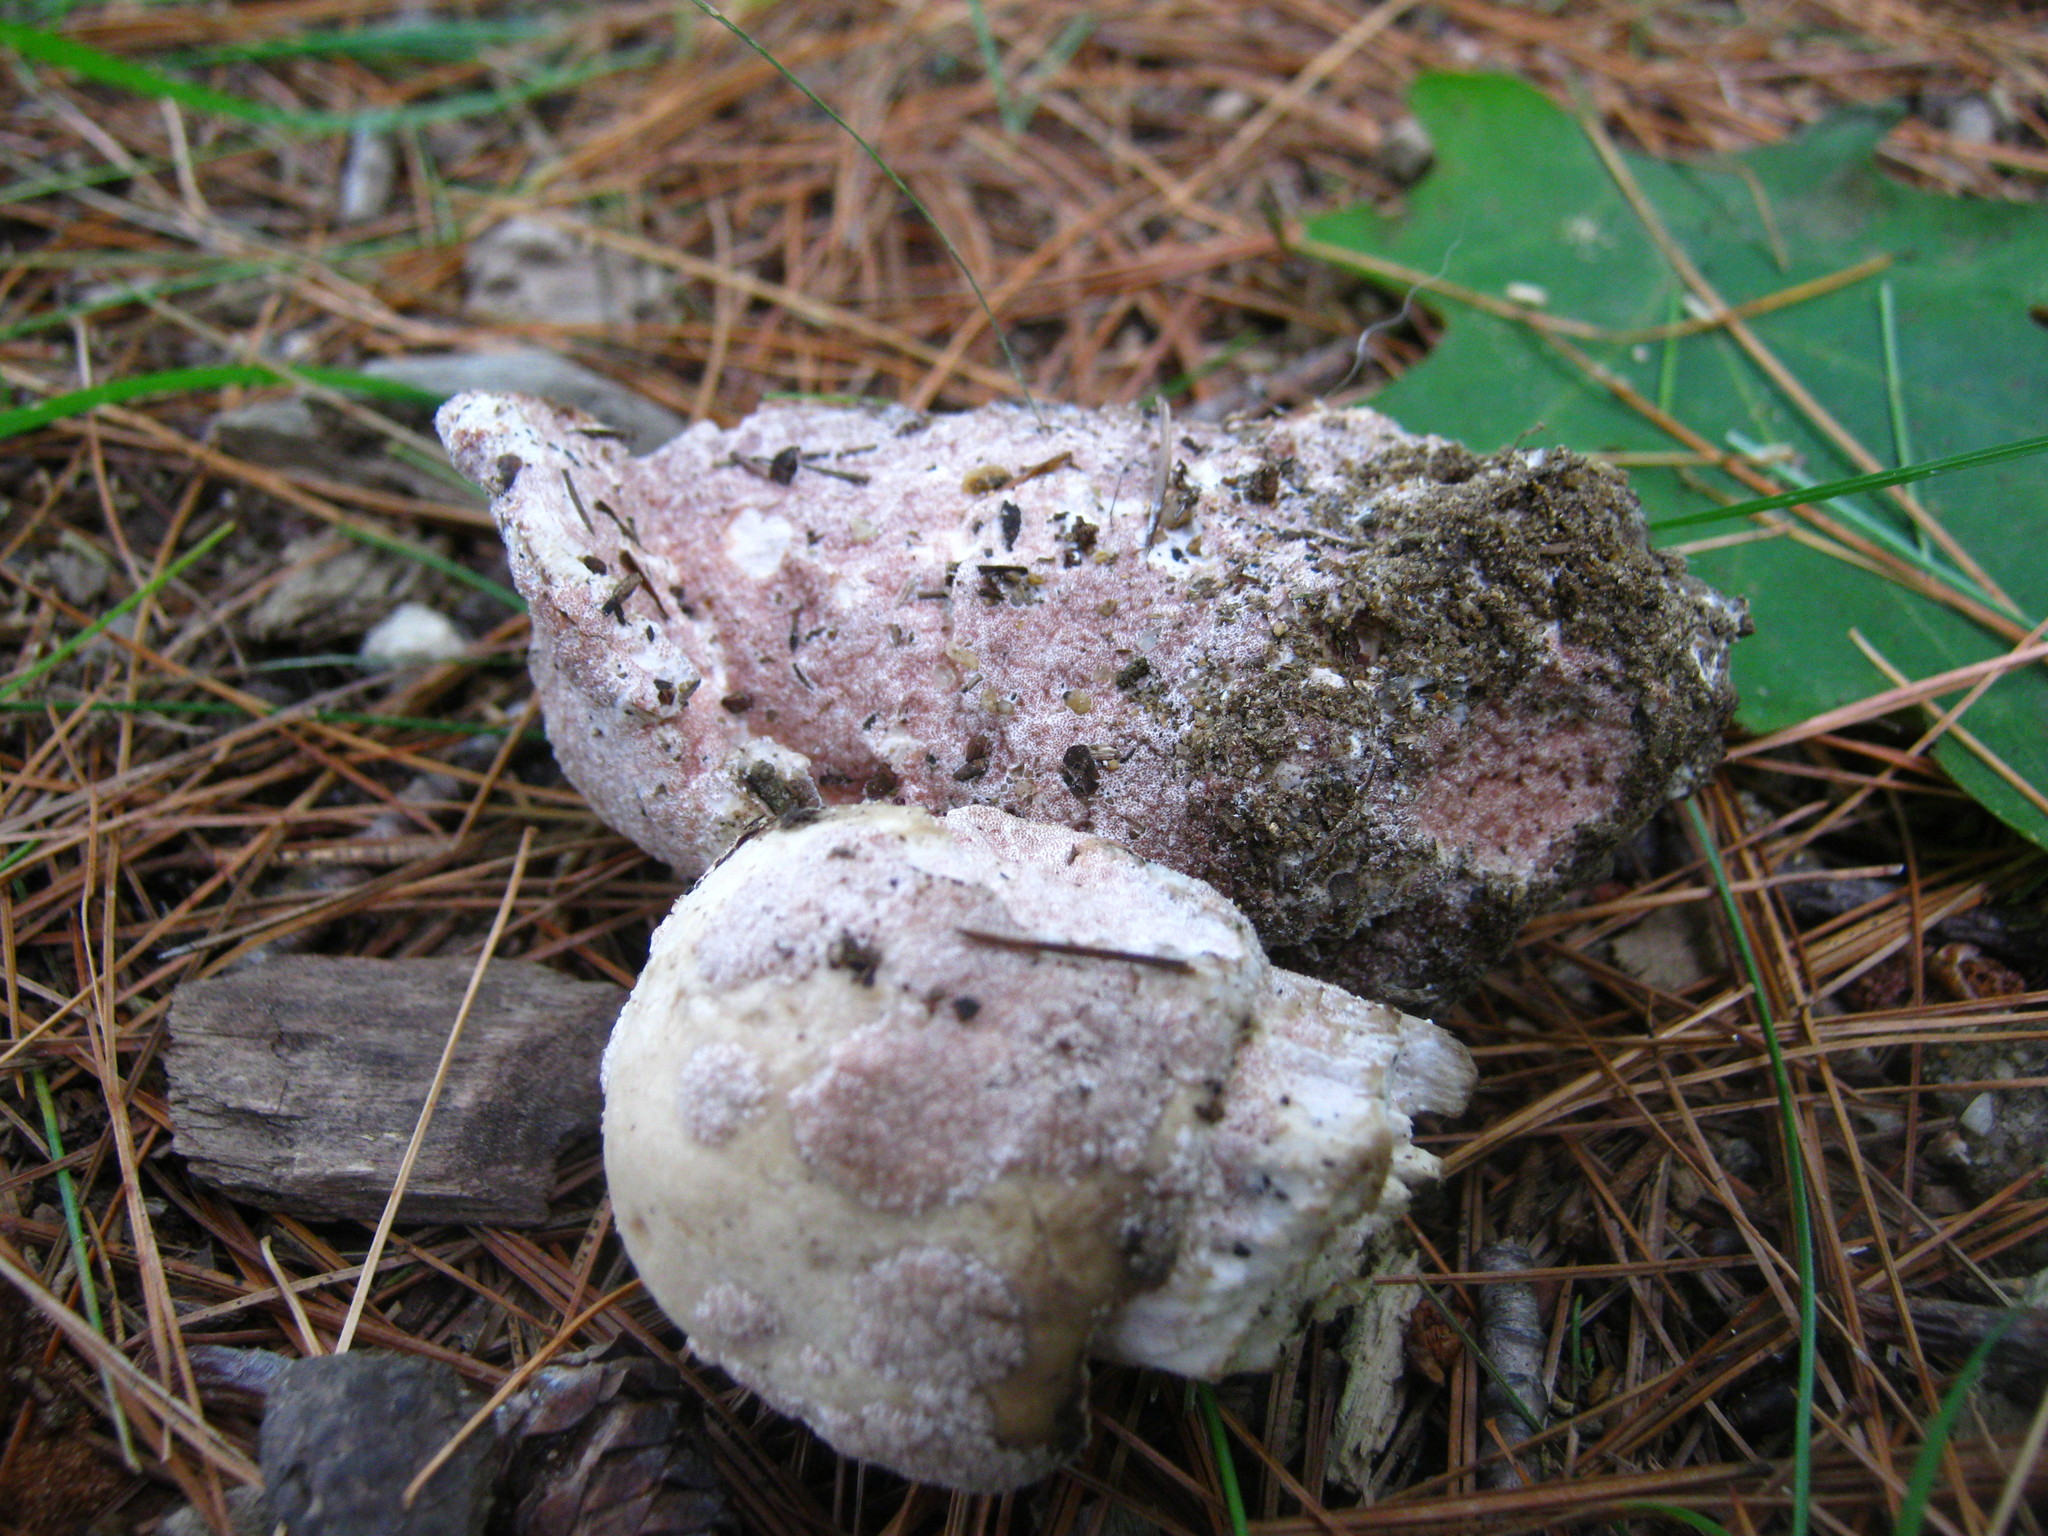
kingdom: Fungi
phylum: Ascomycota
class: Sordariomycetes
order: Hypocreales
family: Hypocreaceae
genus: Mycogone
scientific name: Mycogone rosea
